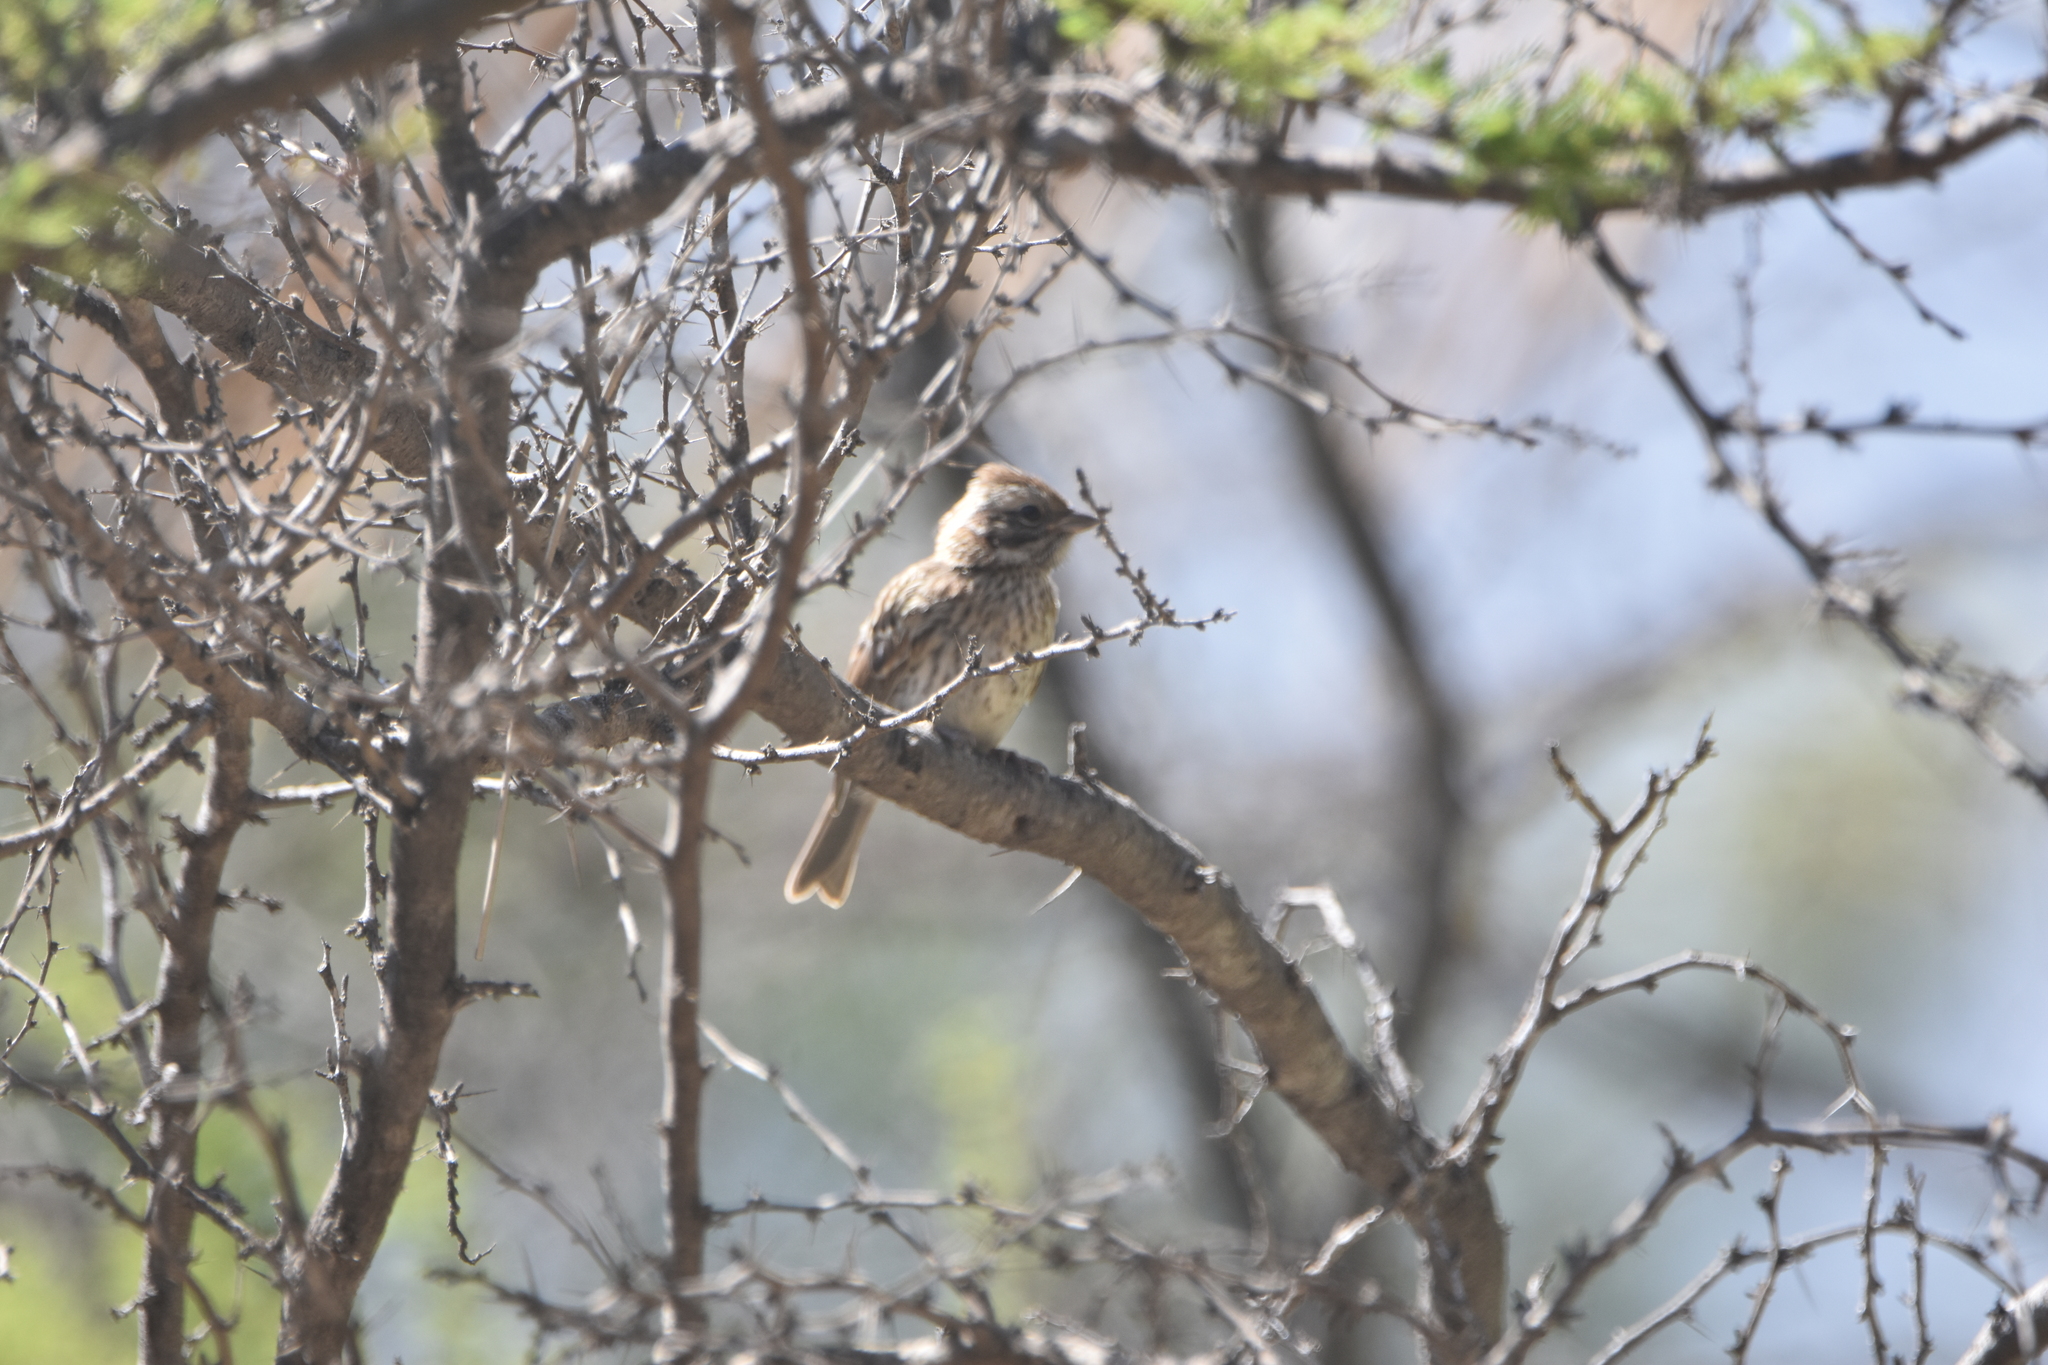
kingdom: Animalia
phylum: Chordata
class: Aves
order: Passeriformes
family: Passerellidae
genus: Zonotrichia
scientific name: Zonotrichia capensis
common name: Rufous-collared sparrow
